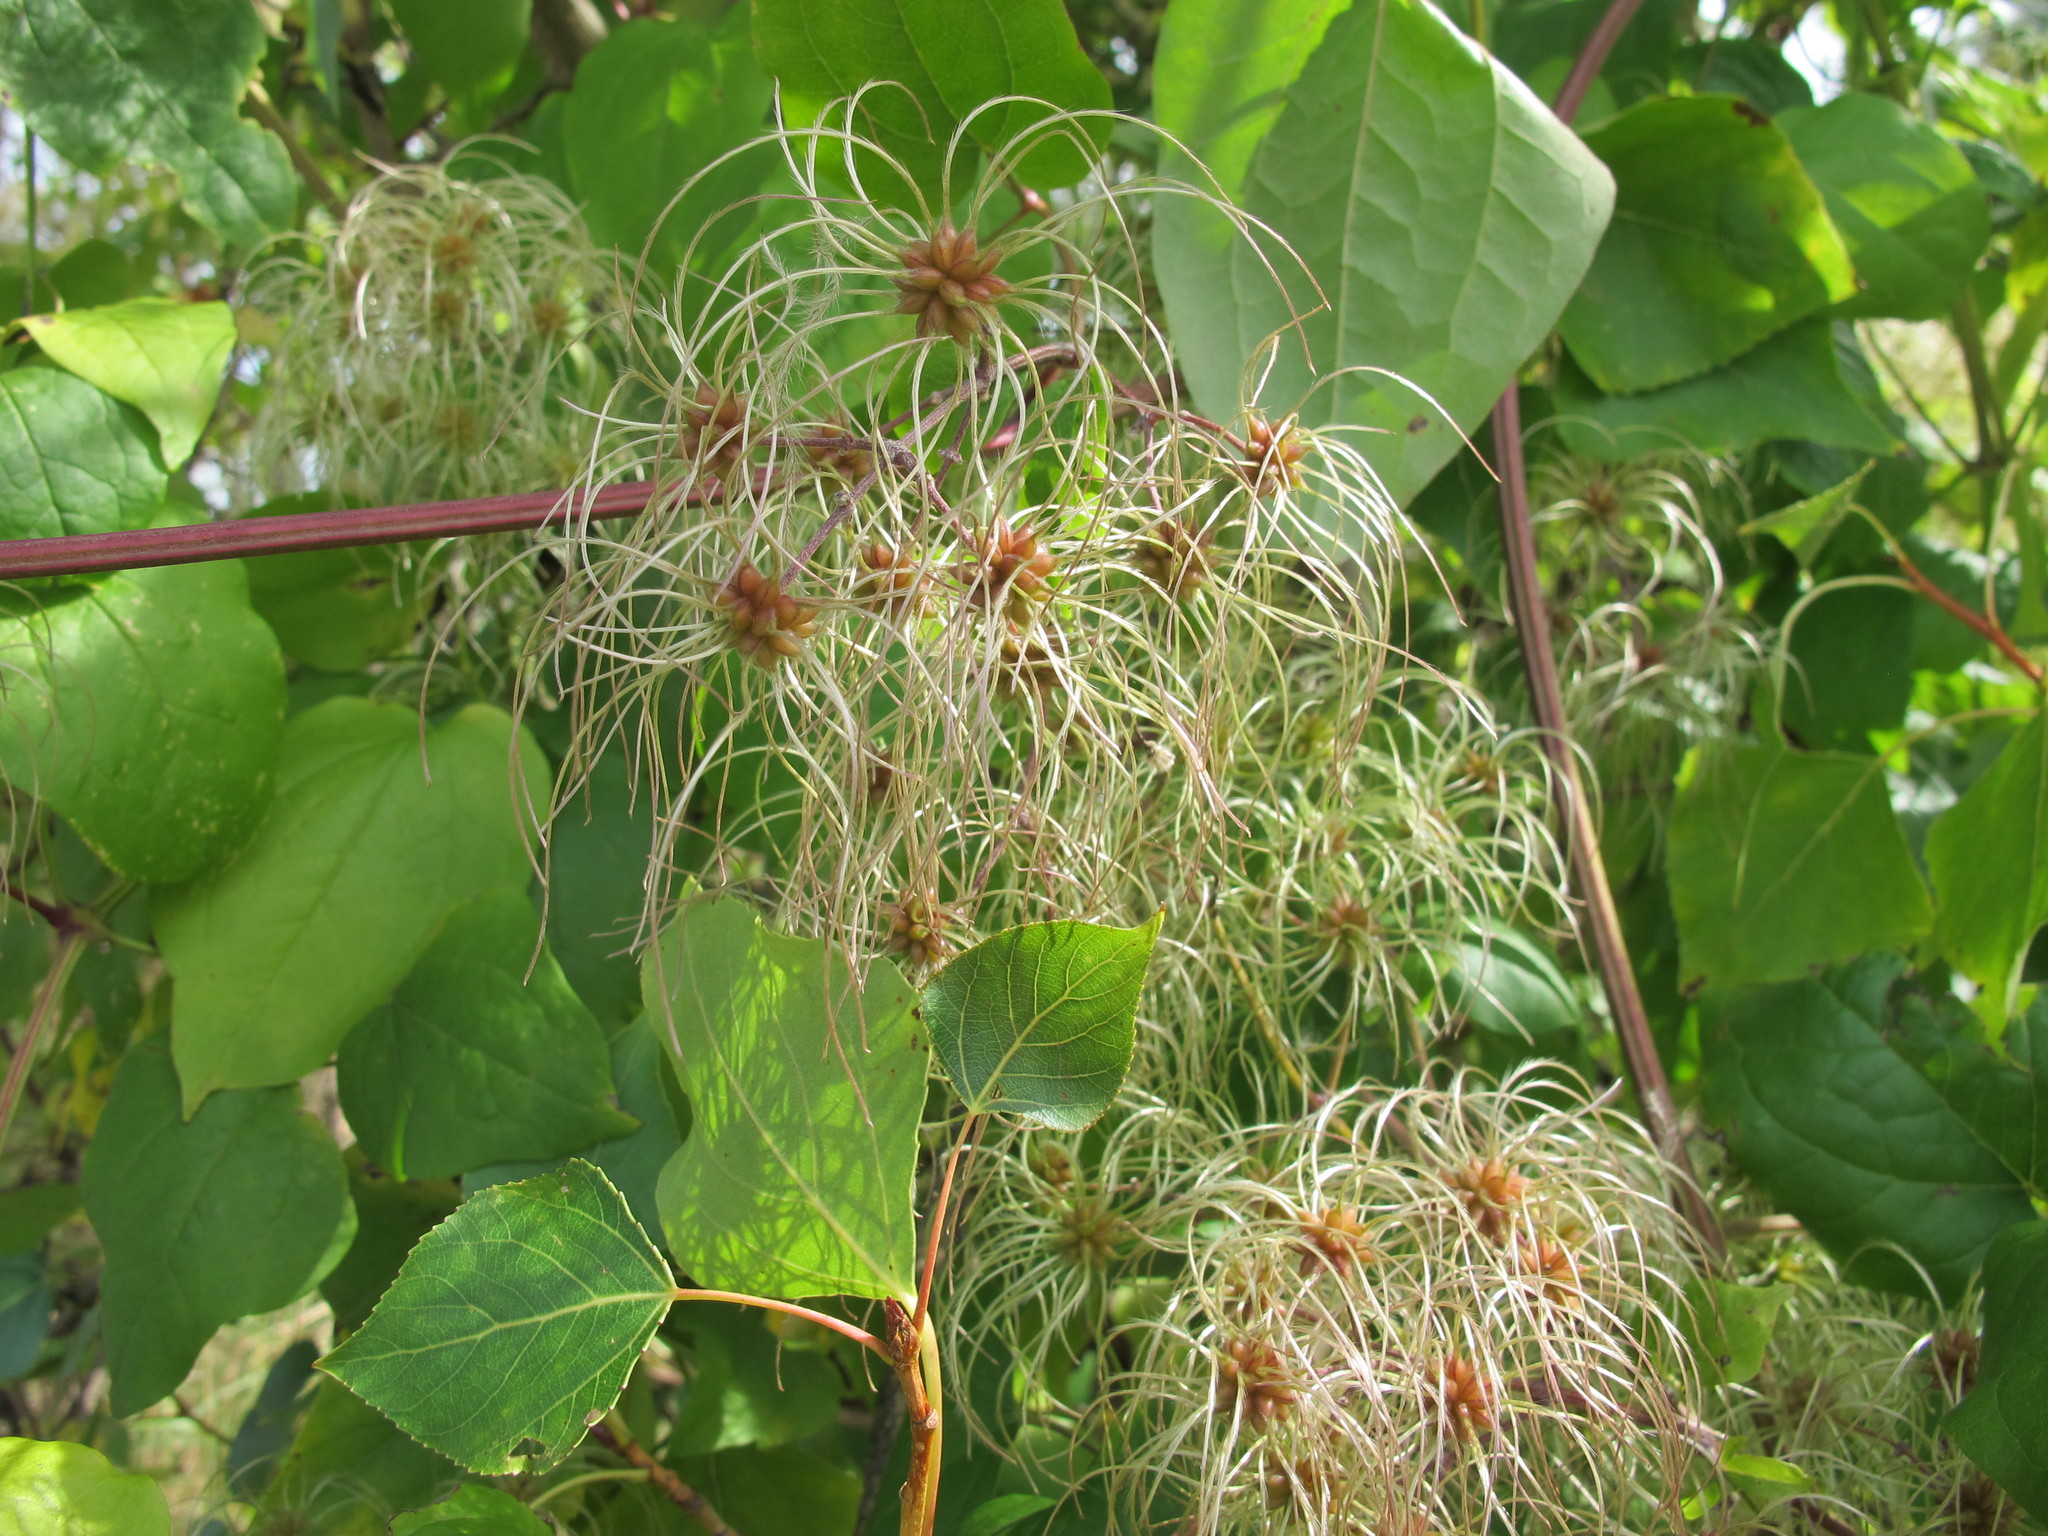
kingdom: Plantae
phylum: Tracheophyta
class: Magnoliopsida
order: Ranunculales
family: Ranunculaceae
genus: Clematis
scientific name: Clematis vitalba
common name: Evergreen clematis
